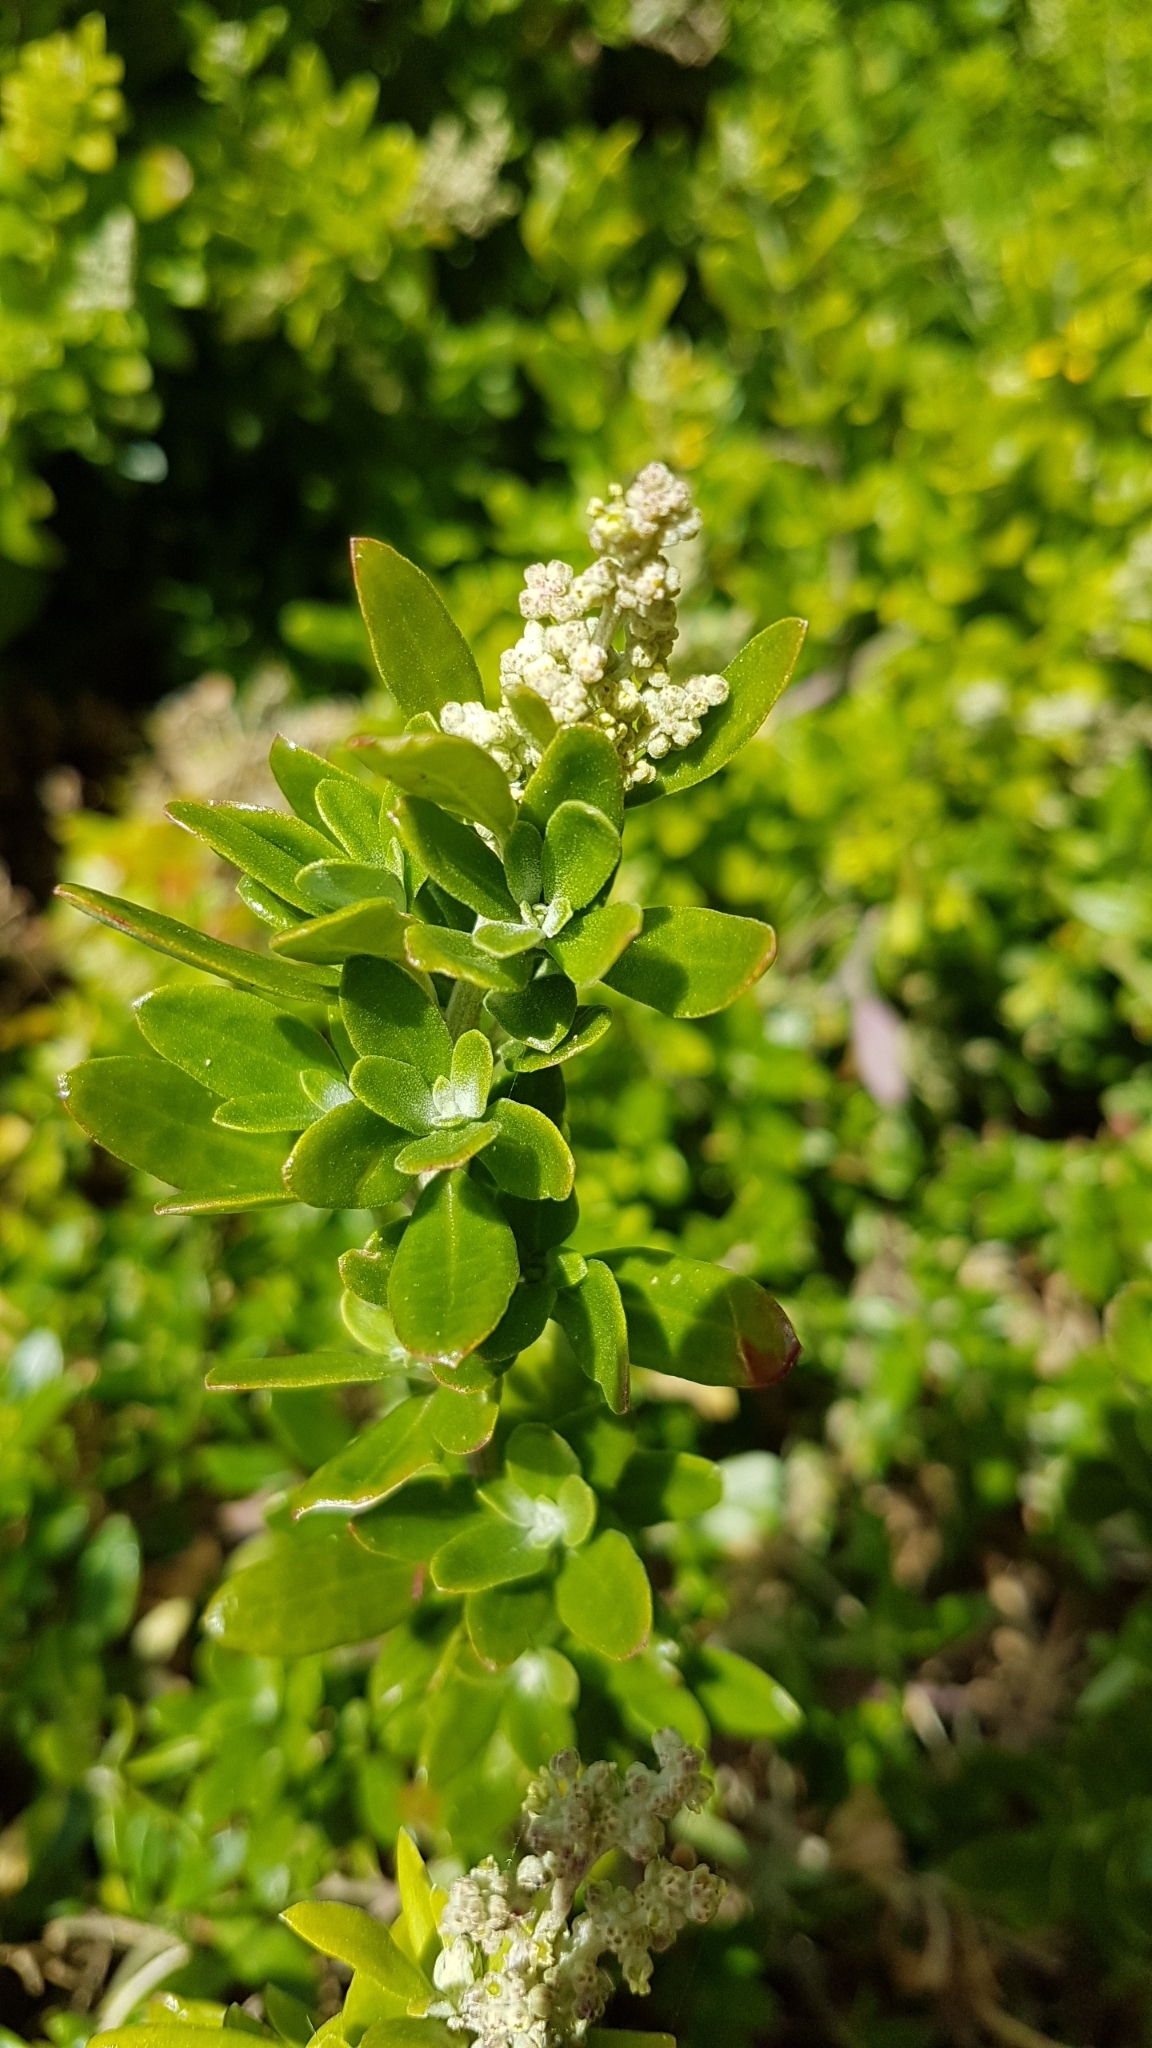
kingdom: Plantae
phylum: Tracheophyta
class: Magnoliopsida
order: Caryophyllales
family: Amaranthaceae
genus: Chenopodium
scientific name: Chenopodium candolleanum
